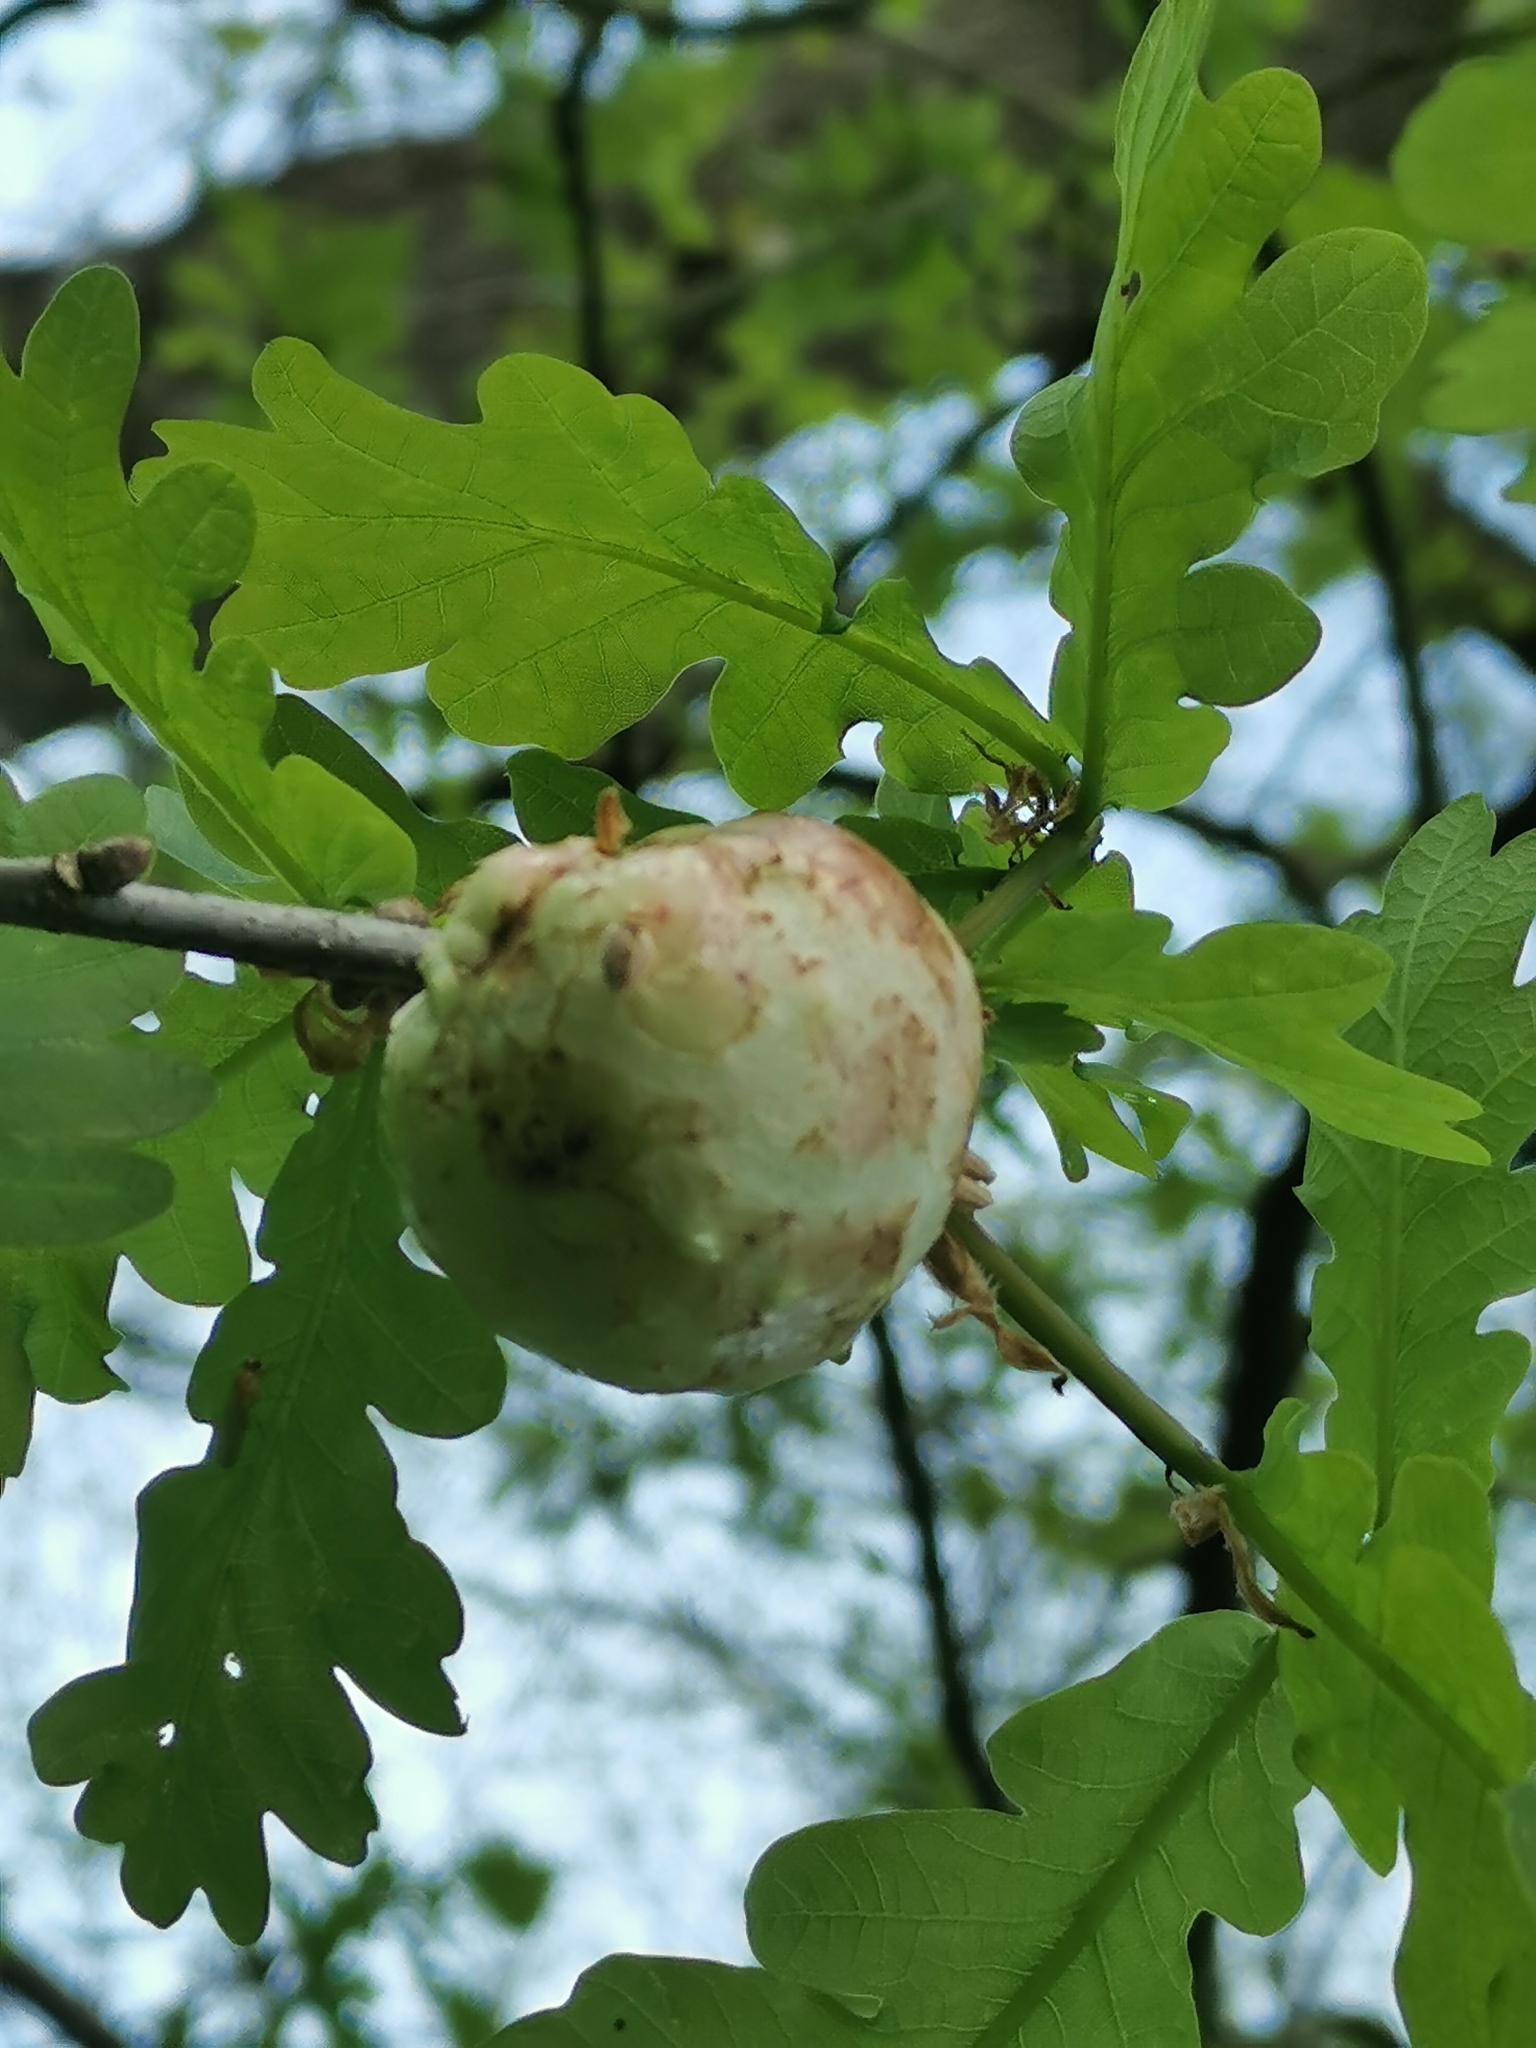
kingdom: Animalia
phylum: Arthropoda
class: Insecta
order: Hymenoptera
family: Cynipidae
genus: Biorhiza
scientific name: Biorhiza pallida
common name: Oak apple
